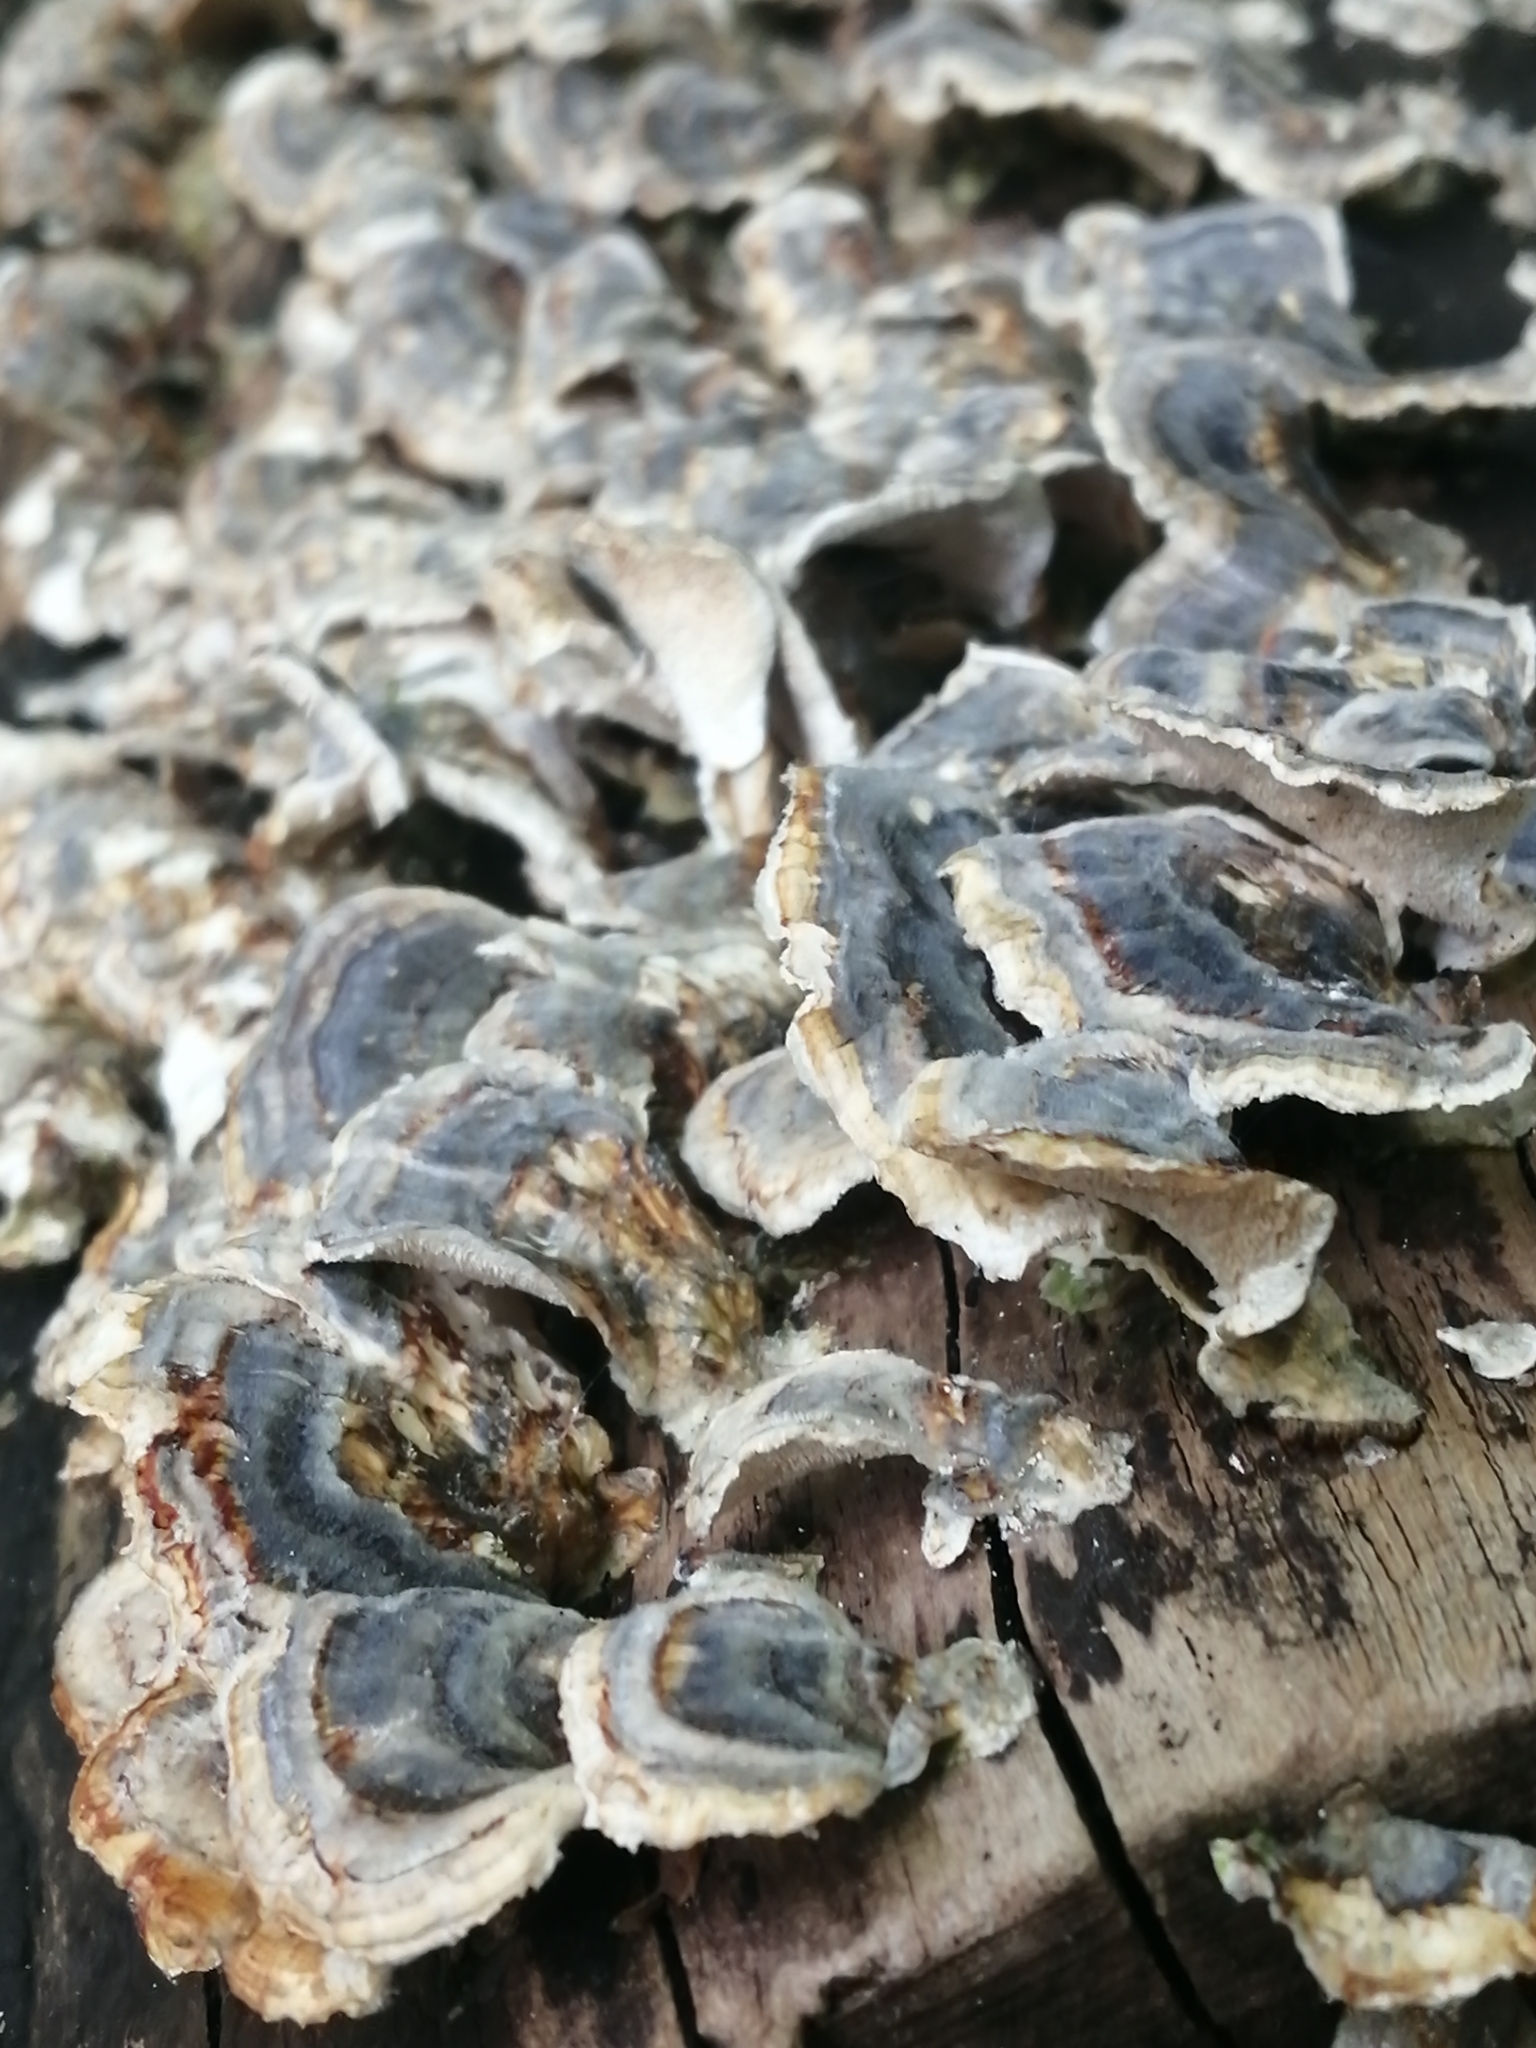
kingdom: Fungi
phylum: Basidiomycota
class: Agaricomycetes
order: Polyporales
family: Polyporaceae
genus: Trametes
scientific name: Trametes versicolor
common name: Turkeytail
